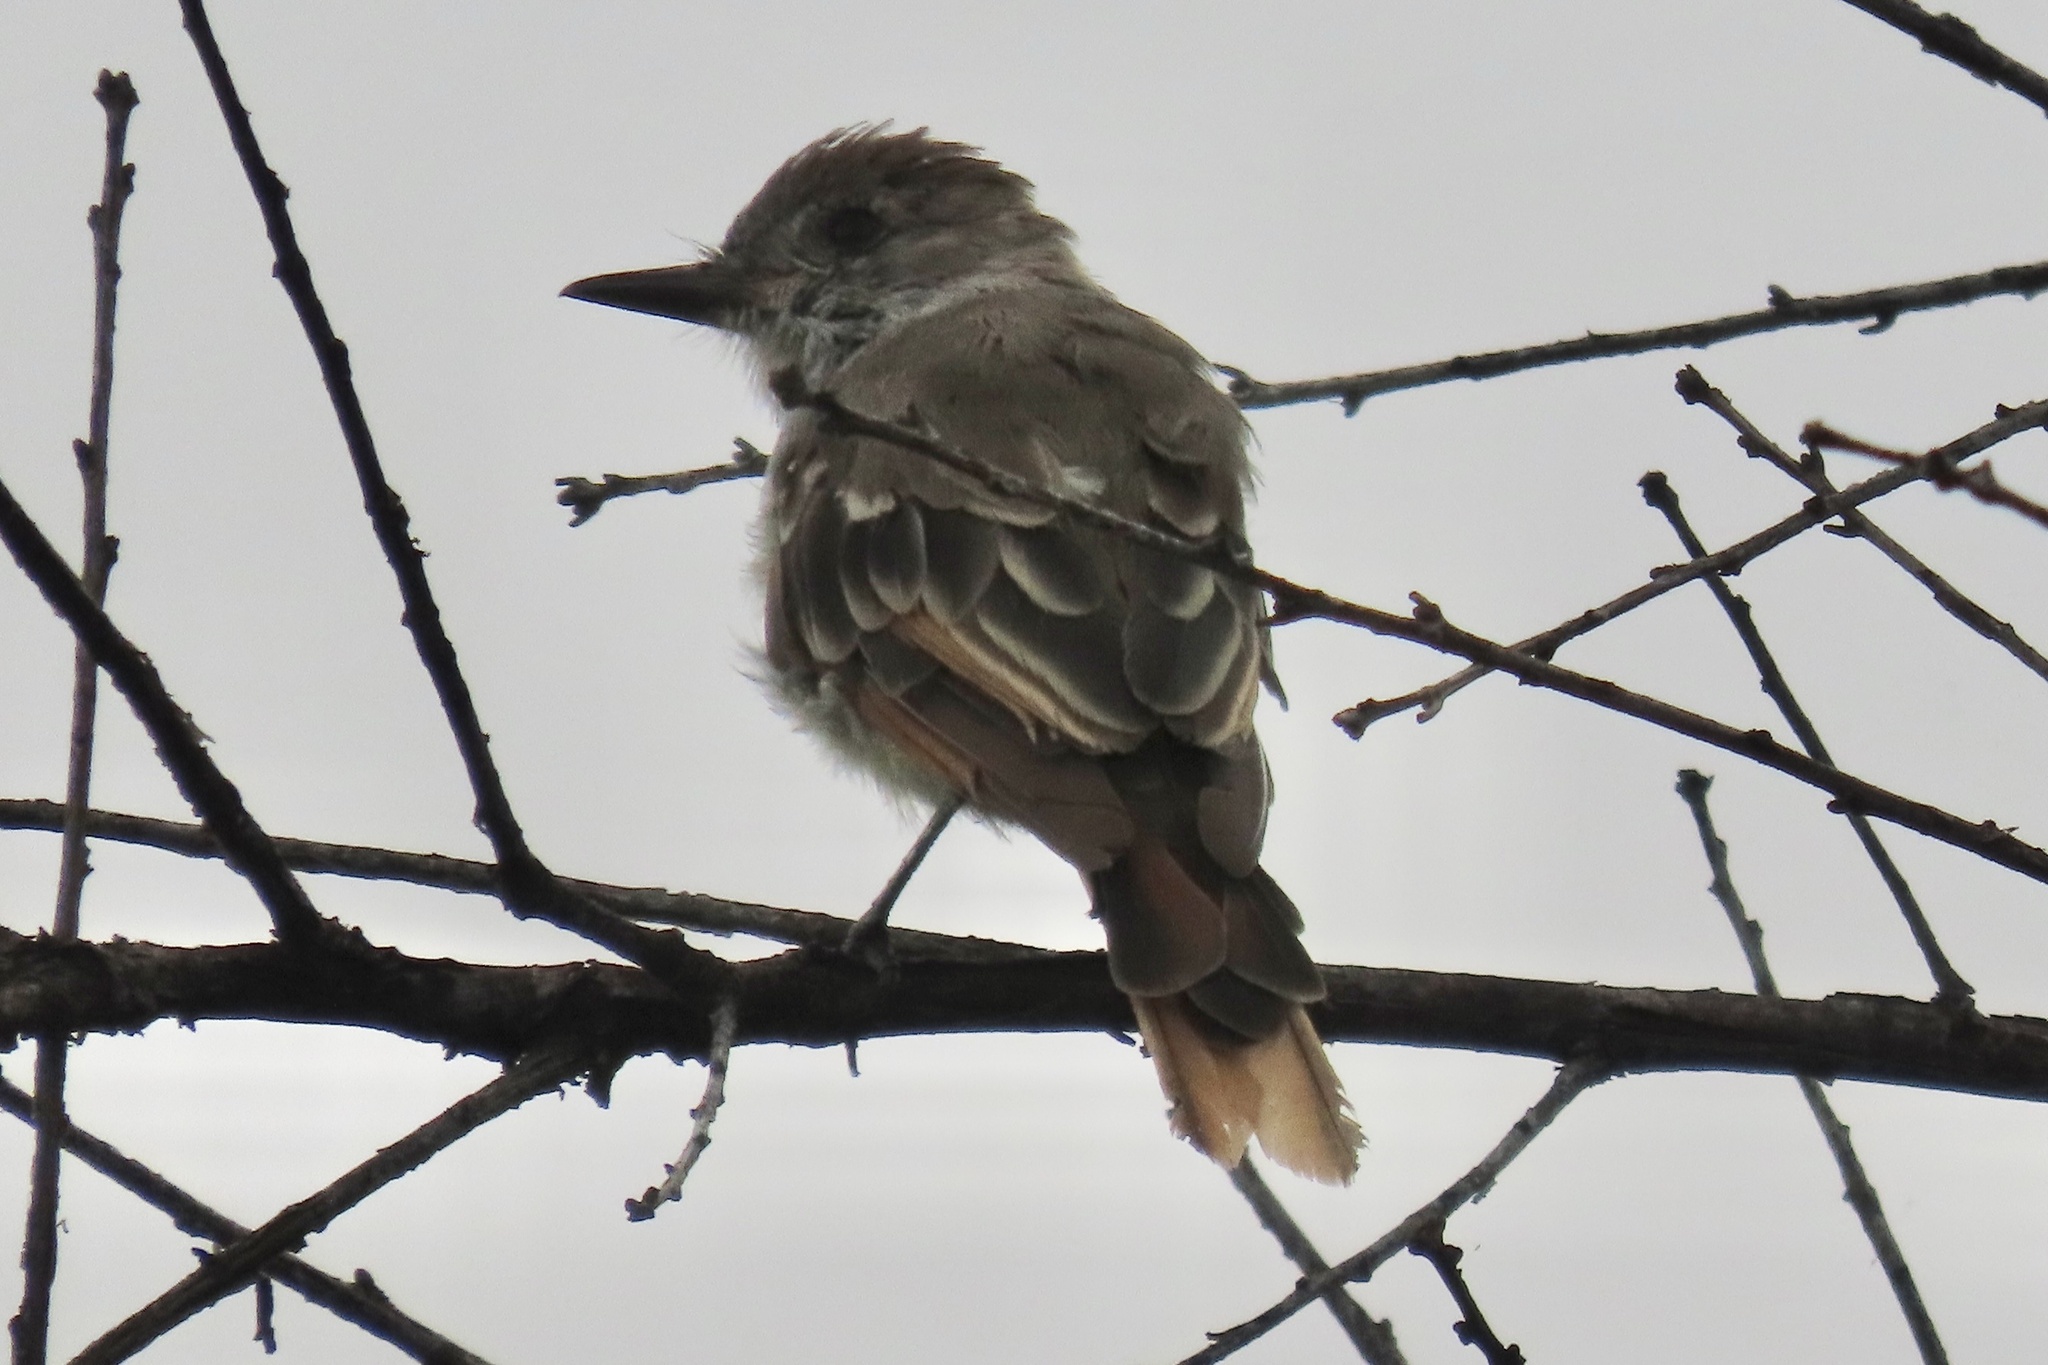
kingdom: Animalia
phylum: Chordata
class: Aves
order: Passeriformes
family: Tyrannidae
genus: Myiarchus
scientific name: Myiarchus cinerascens
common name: Ash-throated flycatcher
